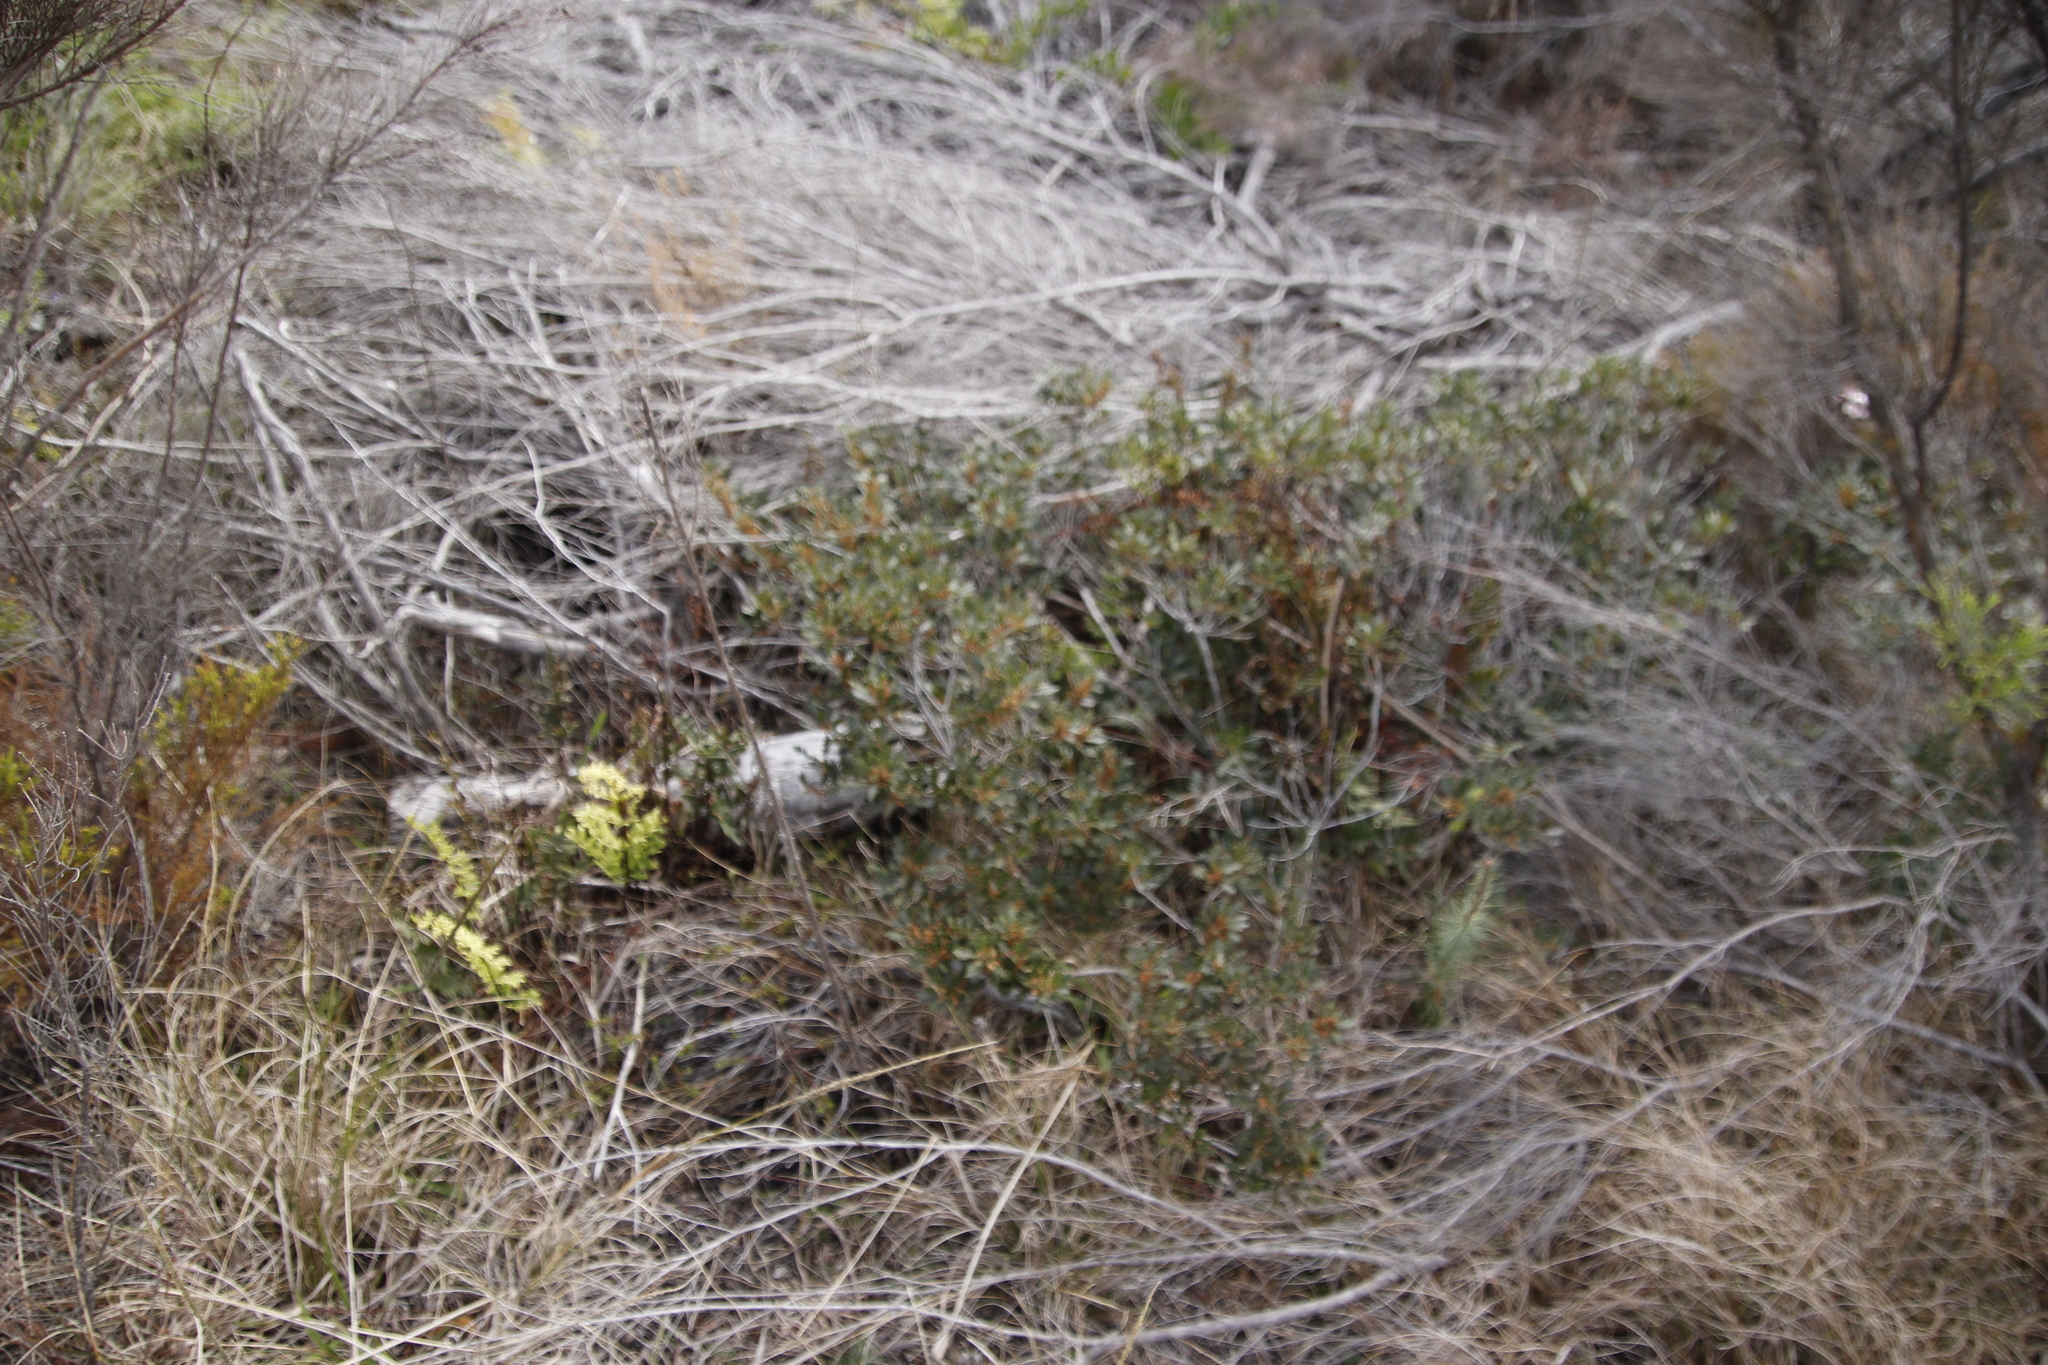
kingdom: Plantae
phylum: Tracheophyta
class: Magnoliopsida
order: Fagales
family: Myricaceae
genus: Morella
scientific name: Morella quercifolia
